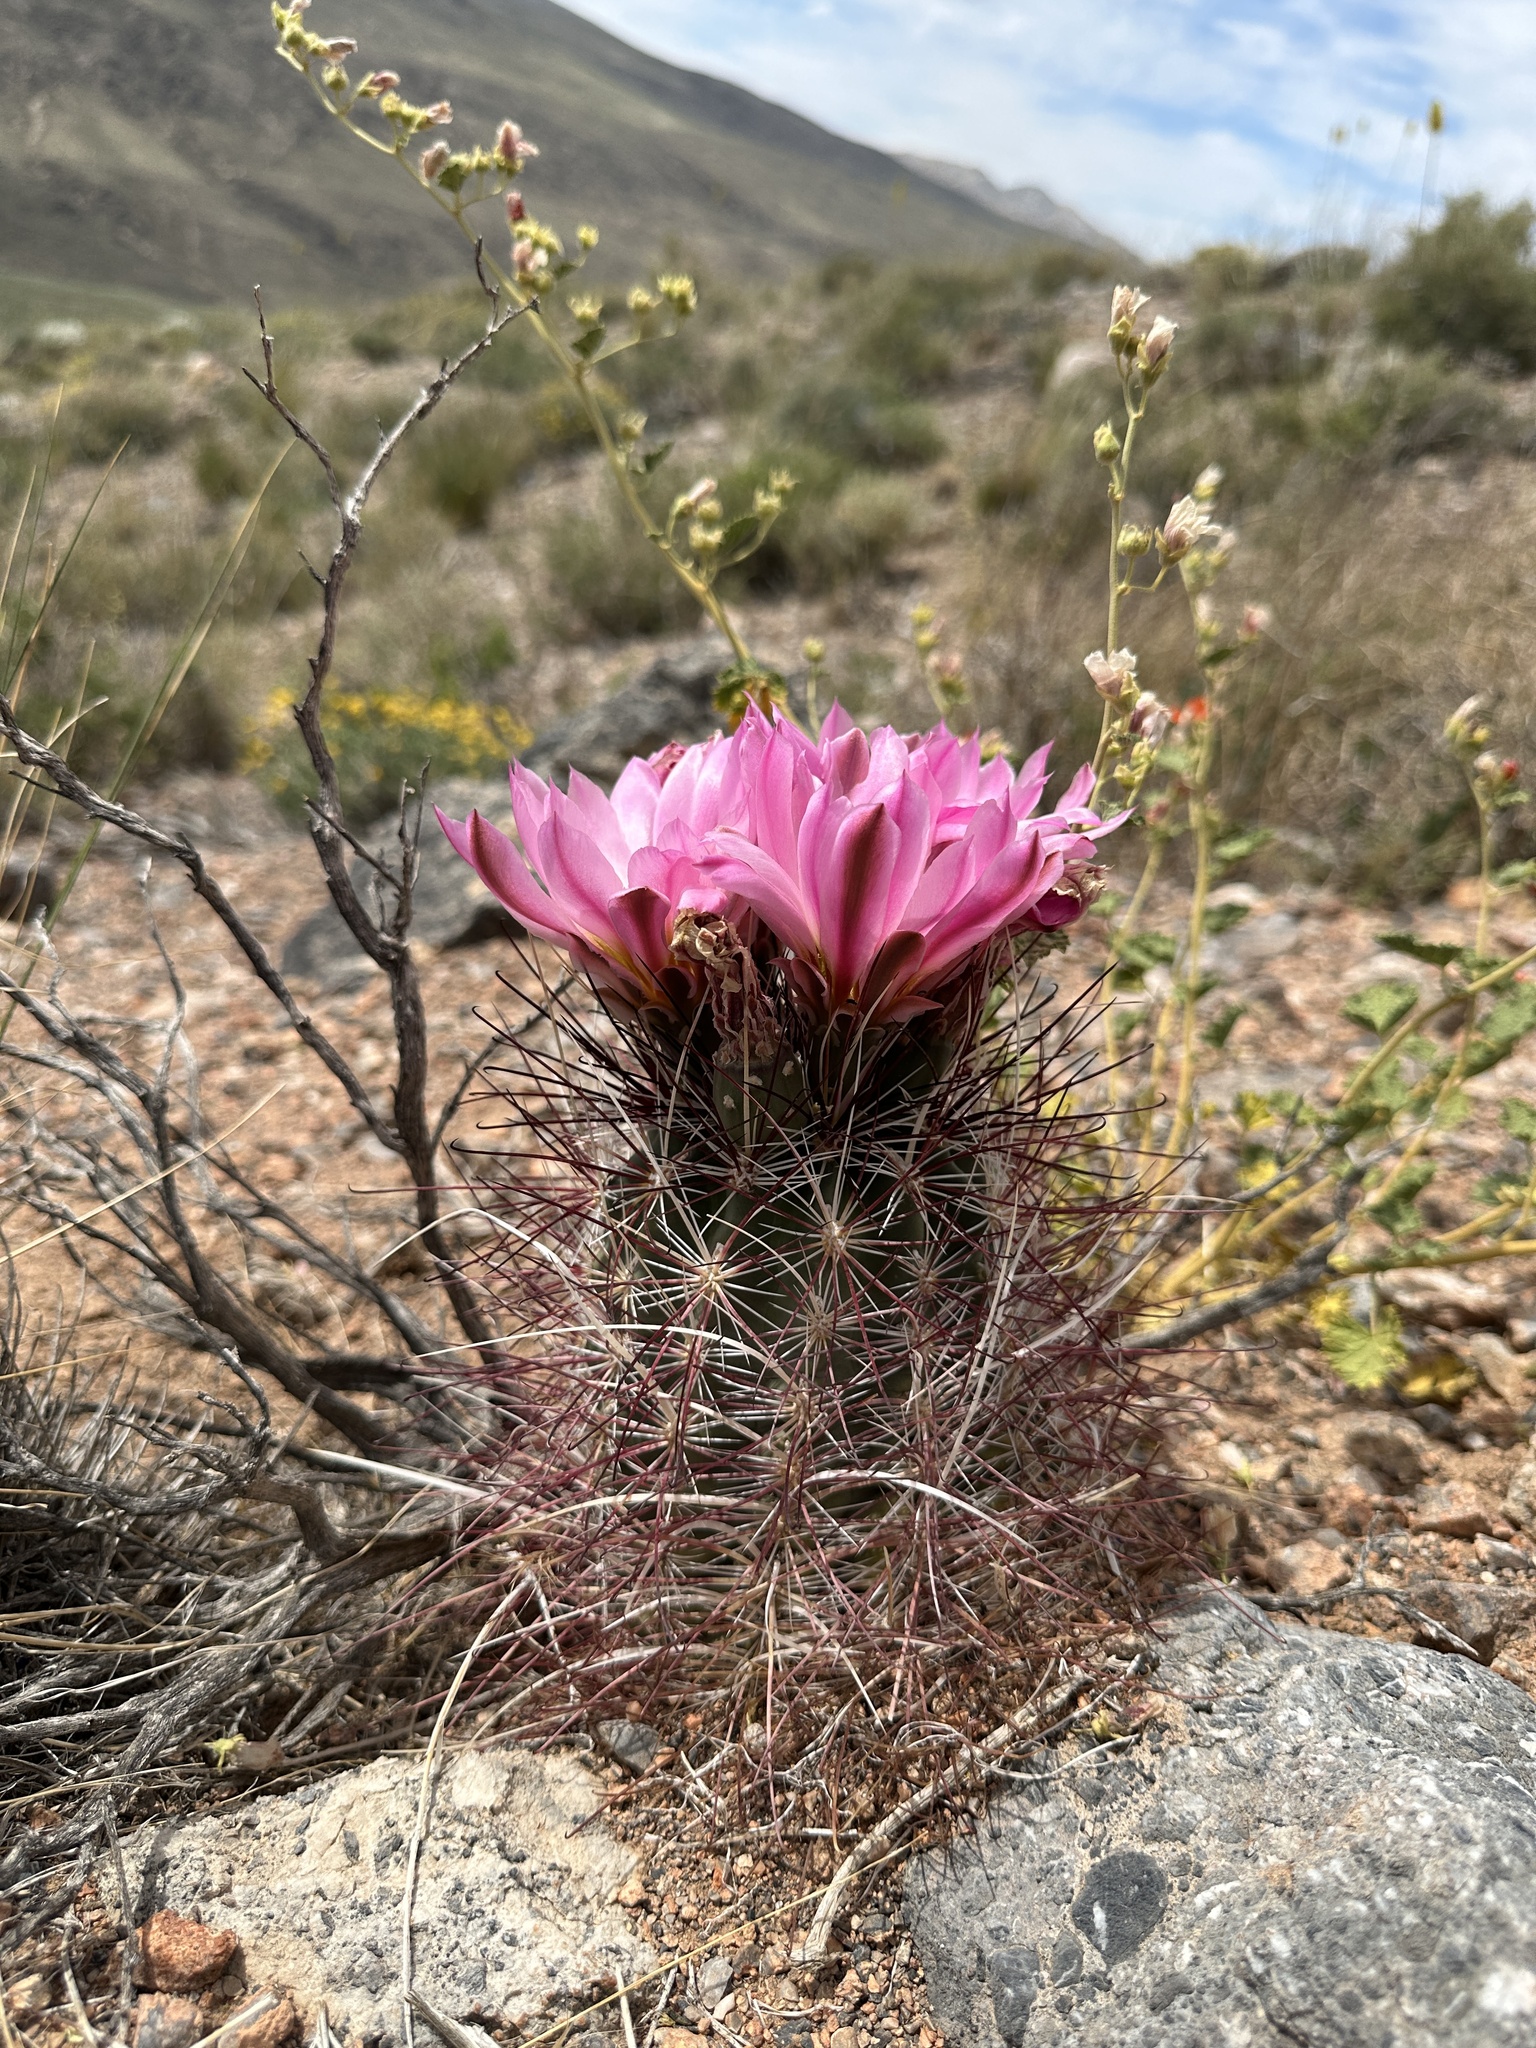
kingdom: Plantae
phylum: Tracheophyta
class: Magnoliopsida
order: Caryophyllales
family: Cactaceae
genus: Sclerocactus
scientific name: Sclerocactus polyancistrus
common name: Mohave fishhook cactus
